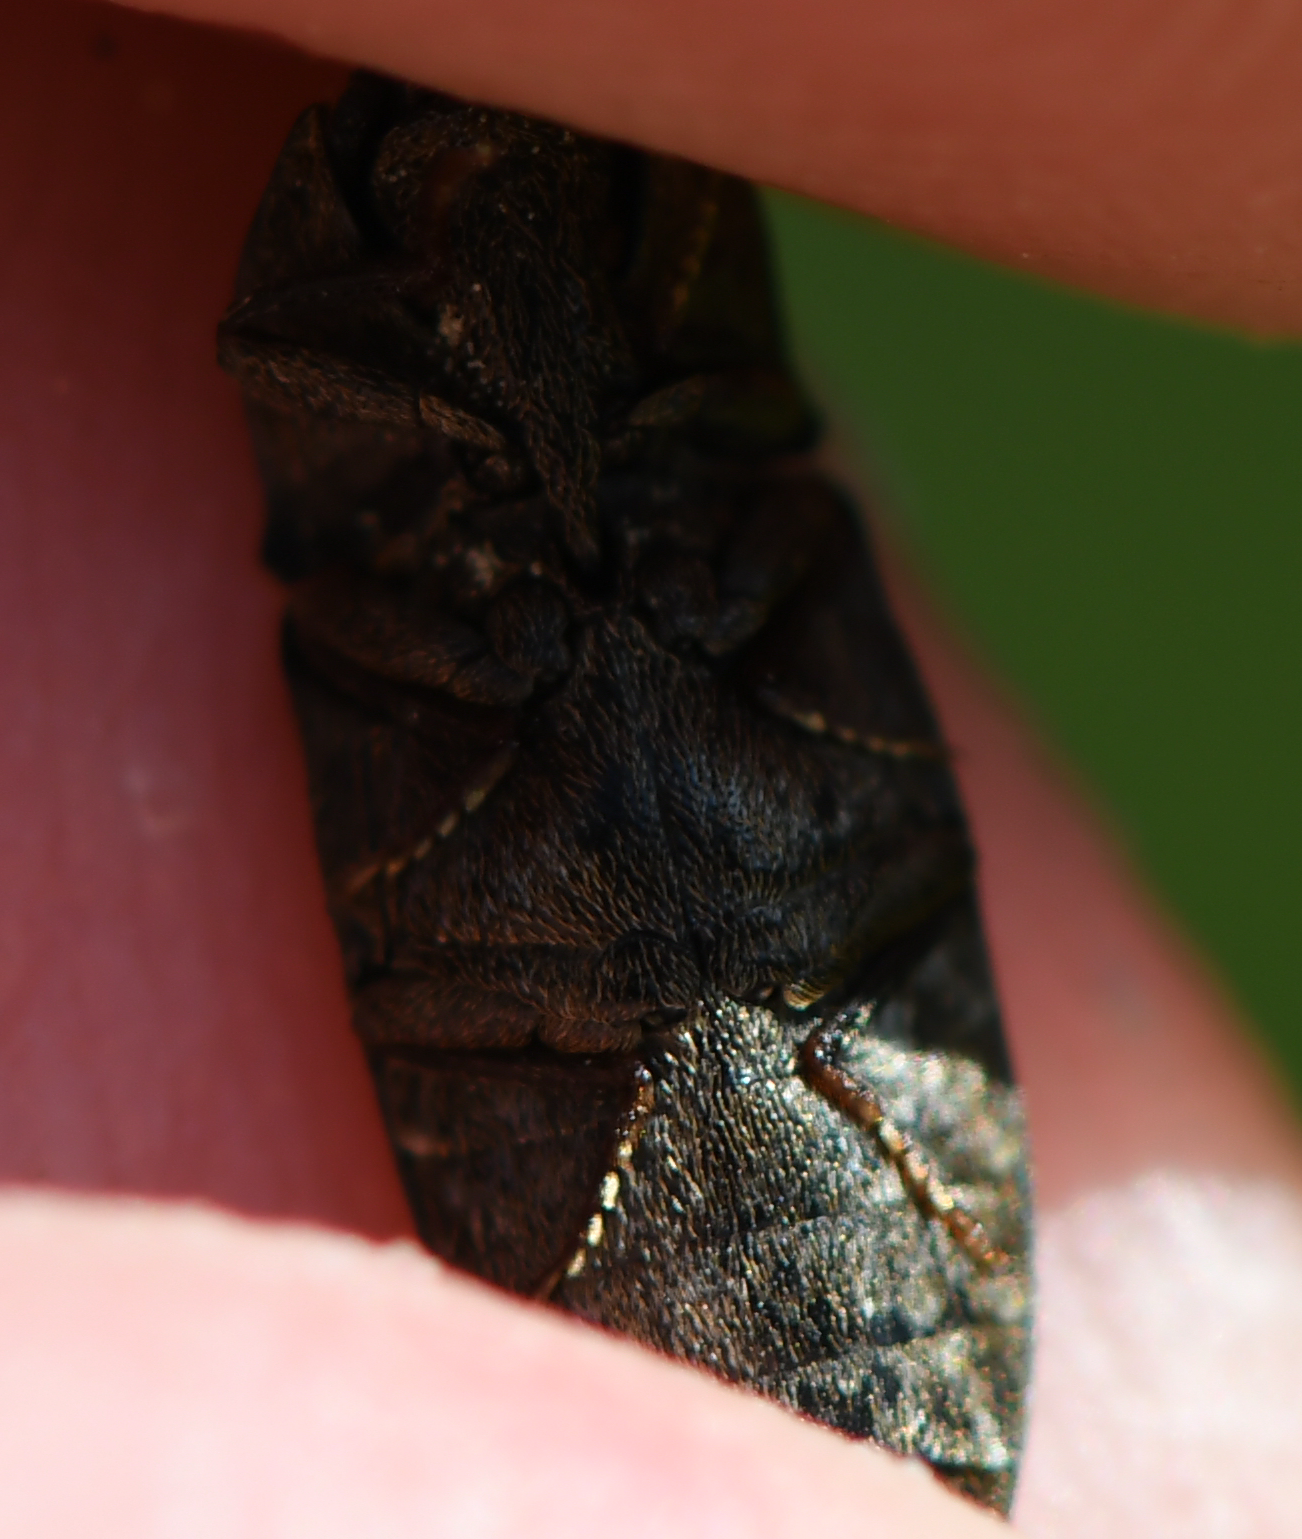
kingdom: Animalia
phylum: Arthropoda
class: Insecta
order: Coleoptera
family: Elateridae
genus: Agrypnus
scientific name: Agrypnus murinus
